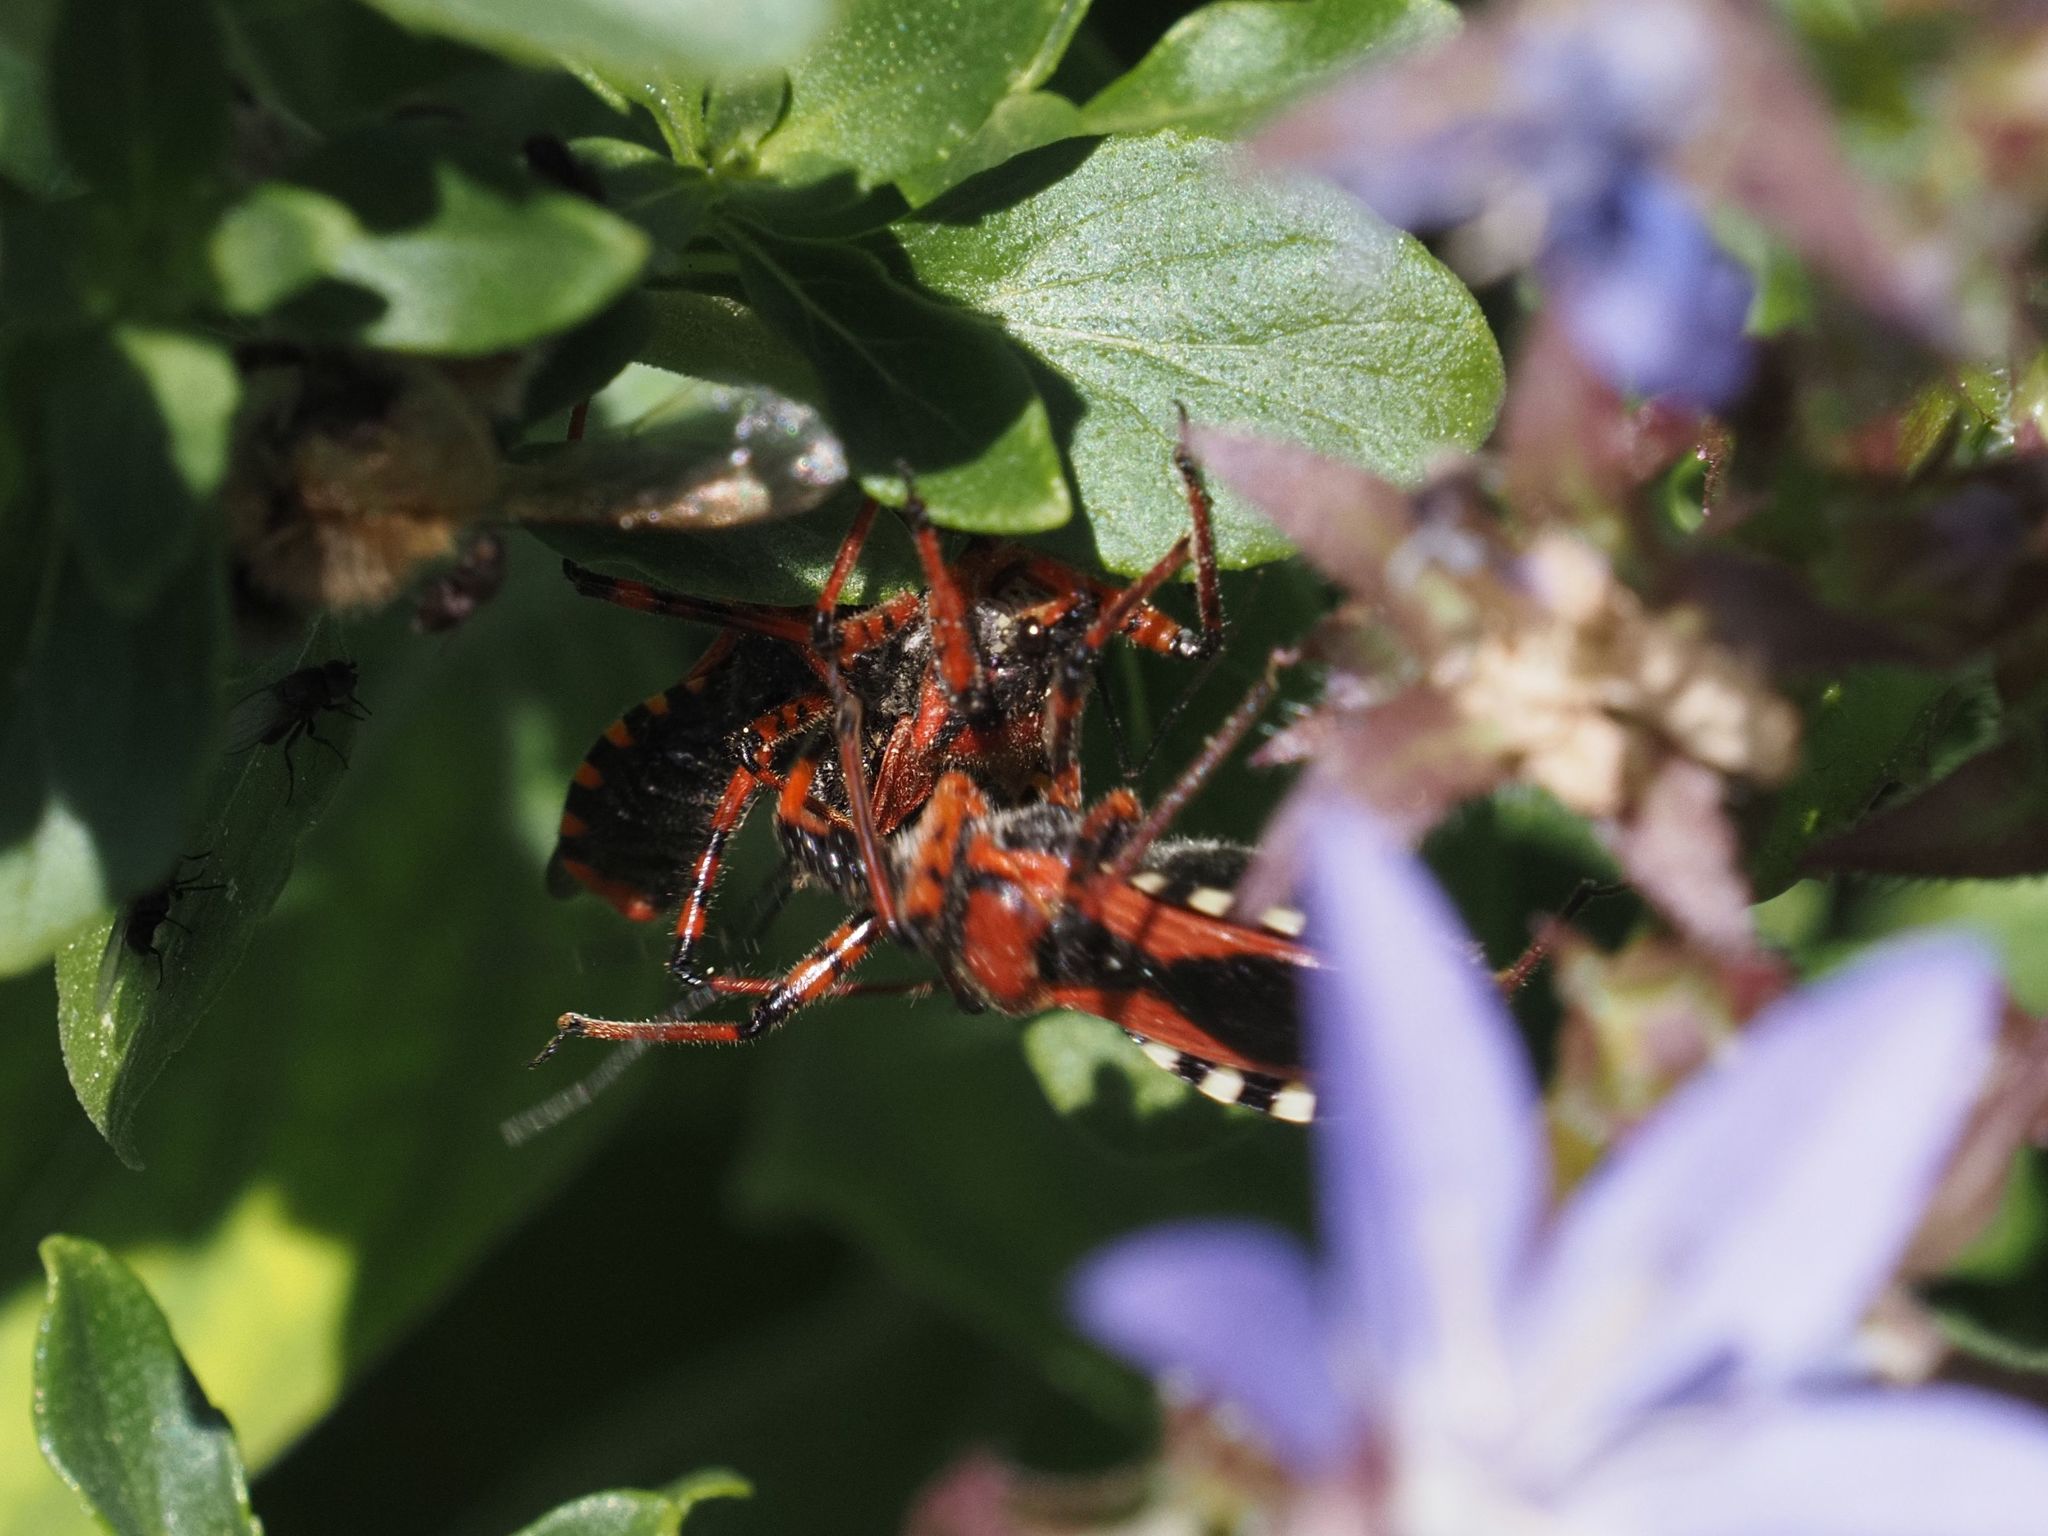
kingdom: Animalia
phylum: Arthropoda
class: Insecta
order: Hemiptera
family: Reduviidae
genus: Rhynocoris
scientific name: Rhynocoris iracundus
